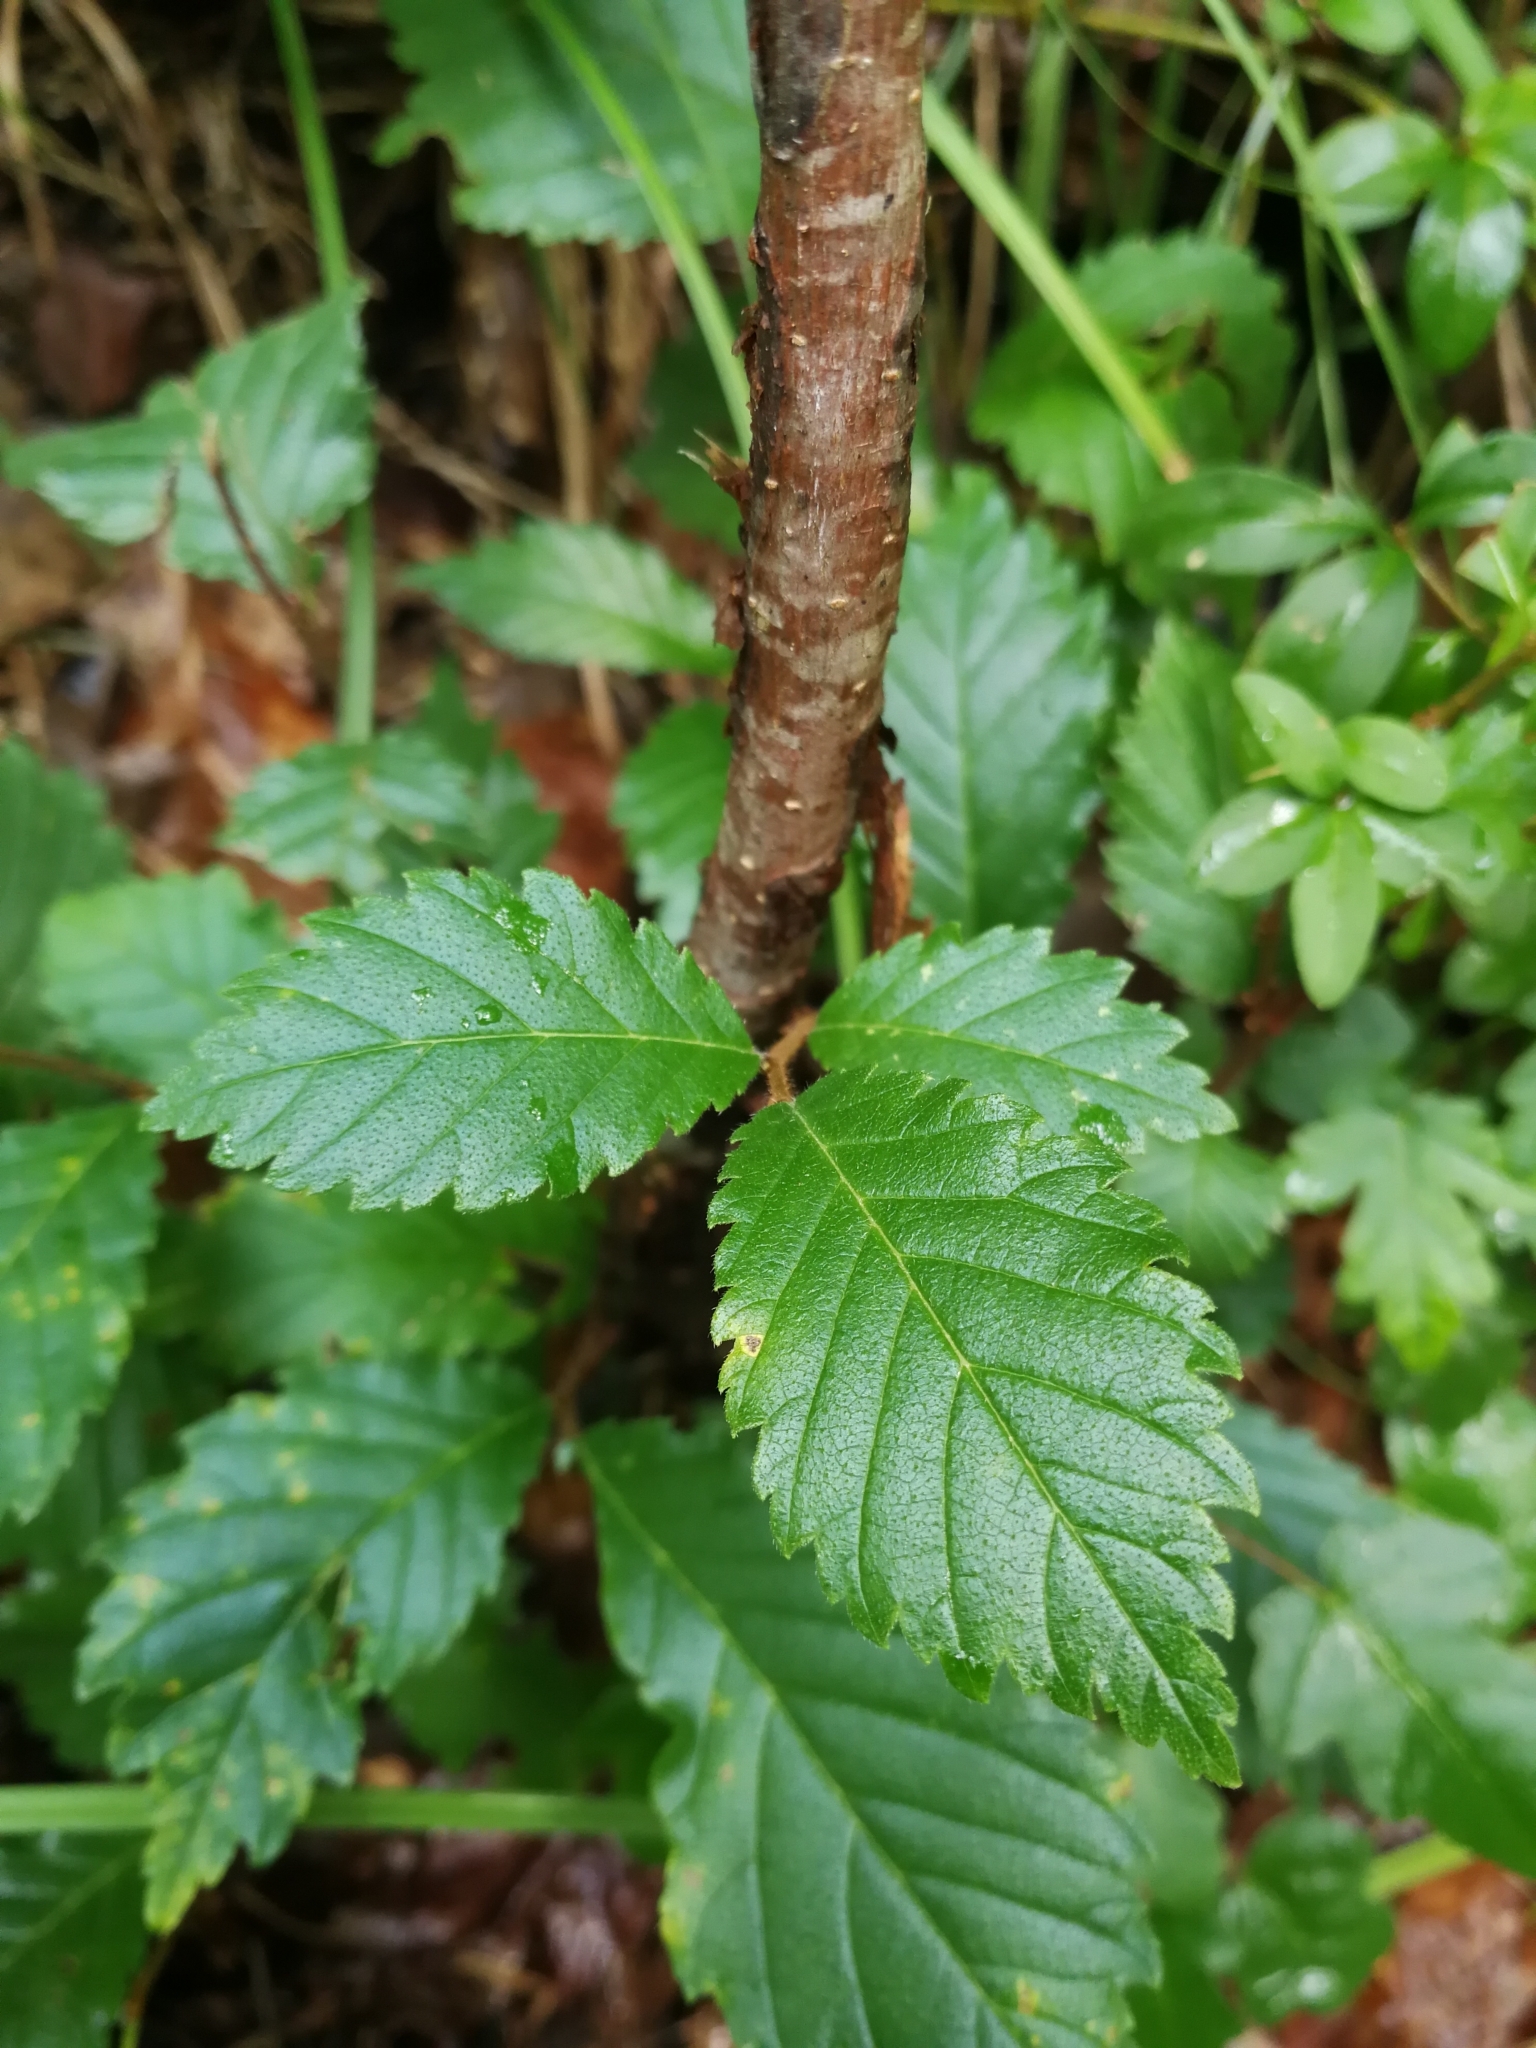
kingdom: Plantae
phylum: Tracheophyta
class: Magnoliopsida
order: Rosales
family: Ulmaceae
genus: Ulmus
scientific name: Ulmus glabra
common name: Wych elm
